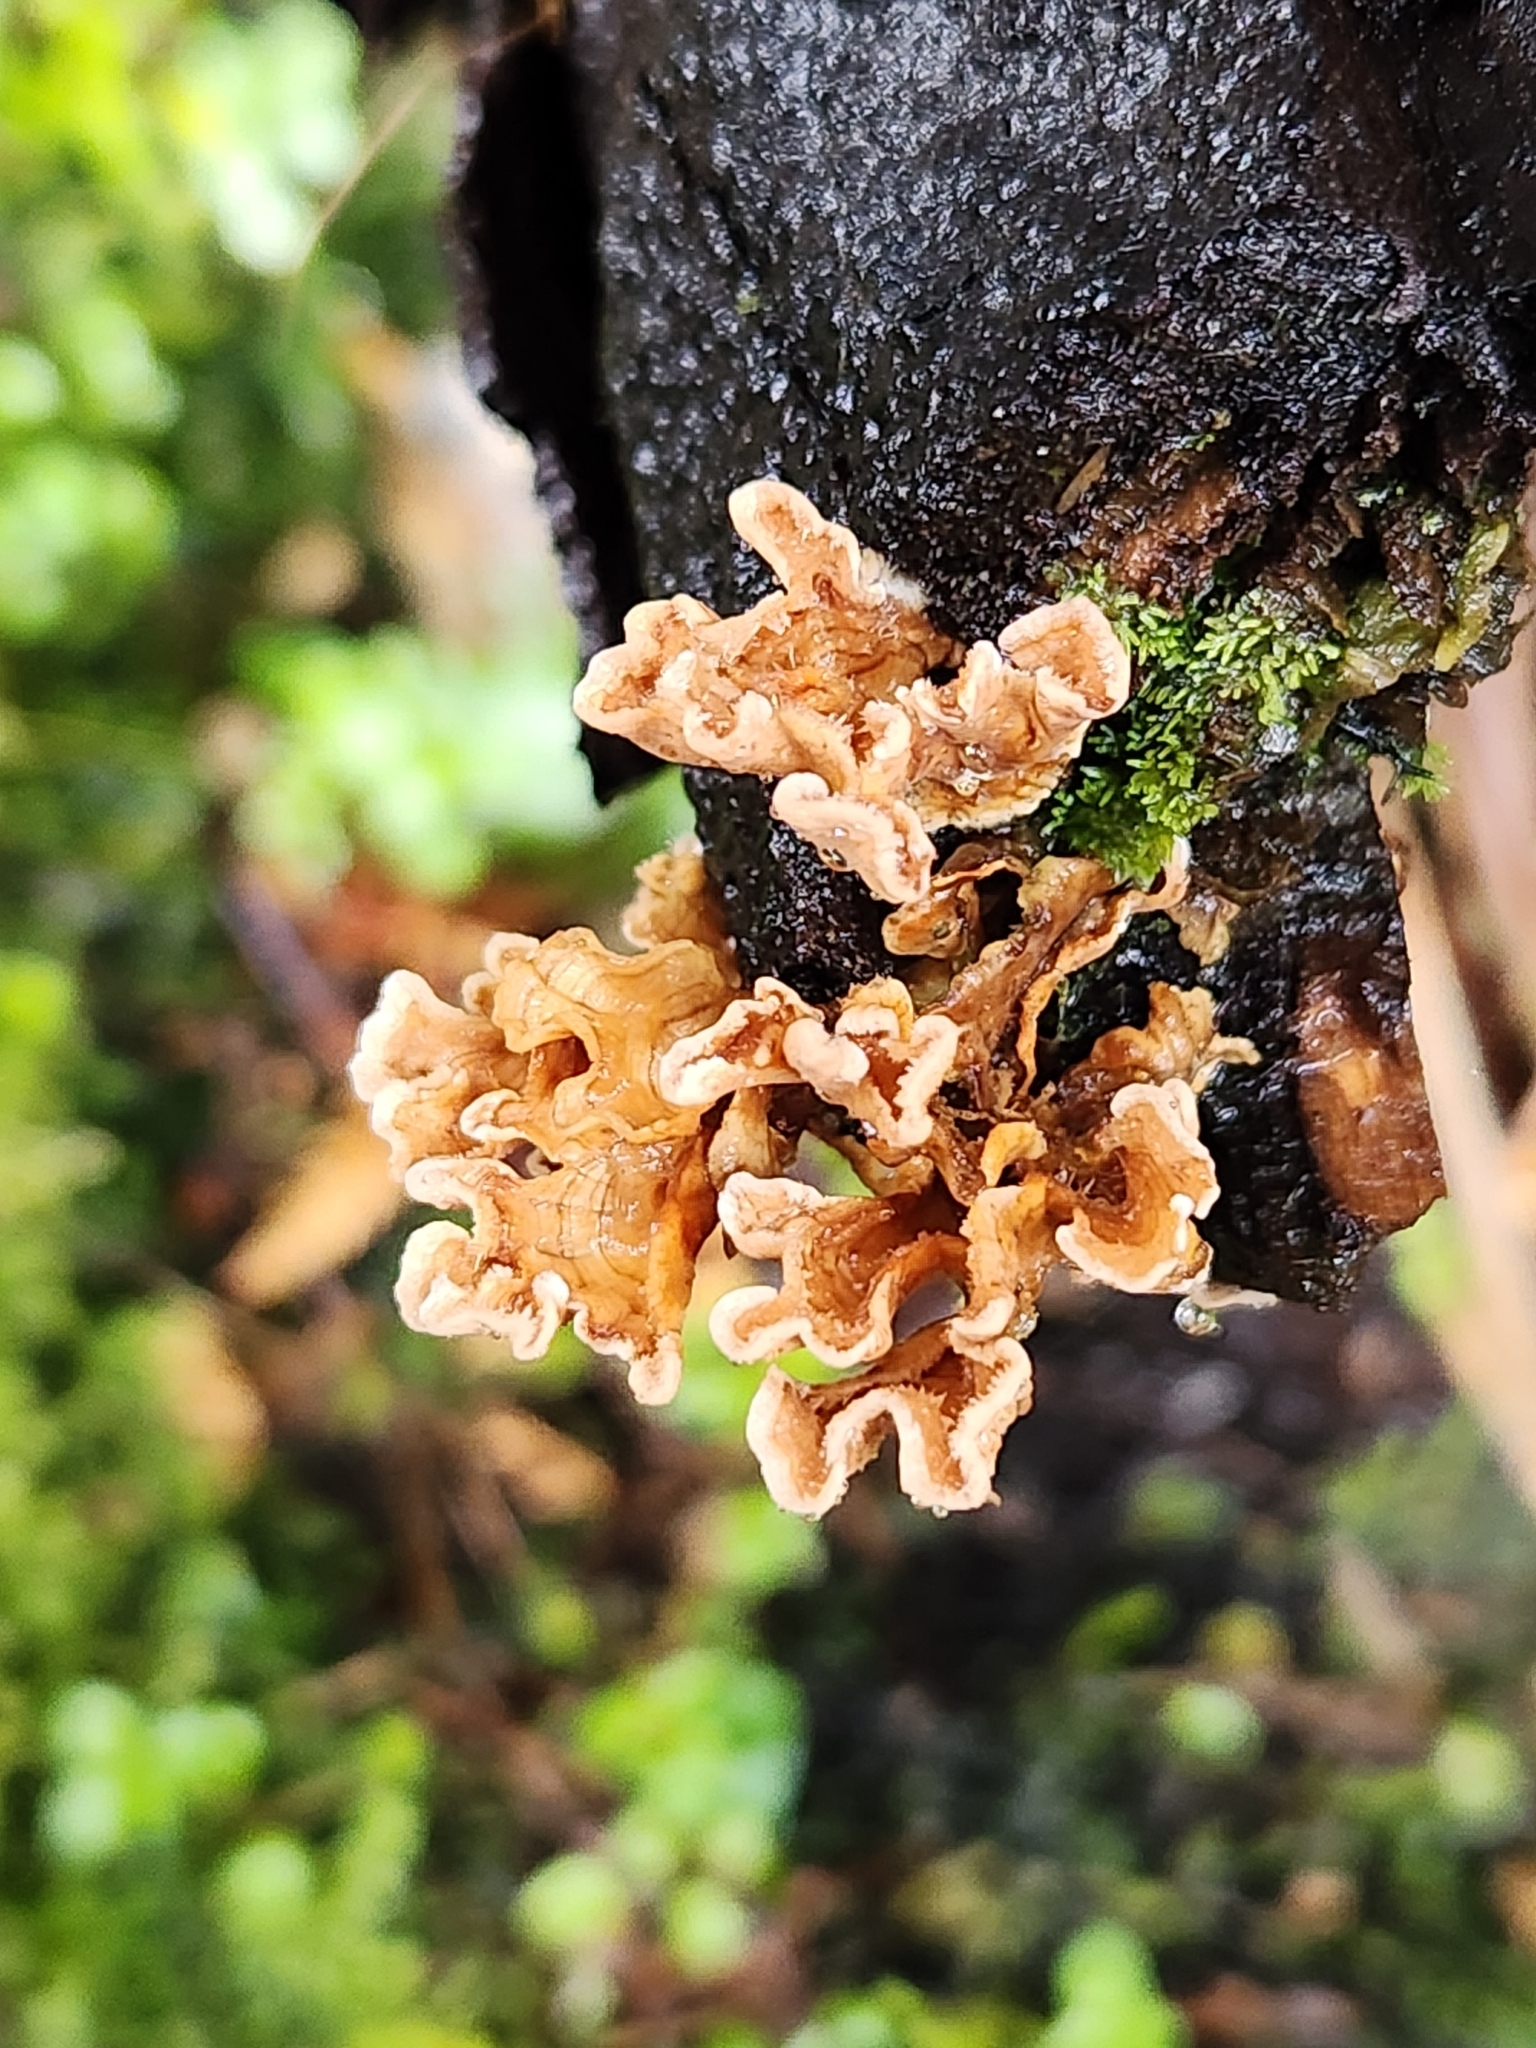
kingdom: Fungi
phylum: Basidiomycota
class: Agaricomycetes
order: Russulales
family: Stereaceae
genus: Stereum
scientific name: Stereum hirsutum
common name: Hairy curtain crust
